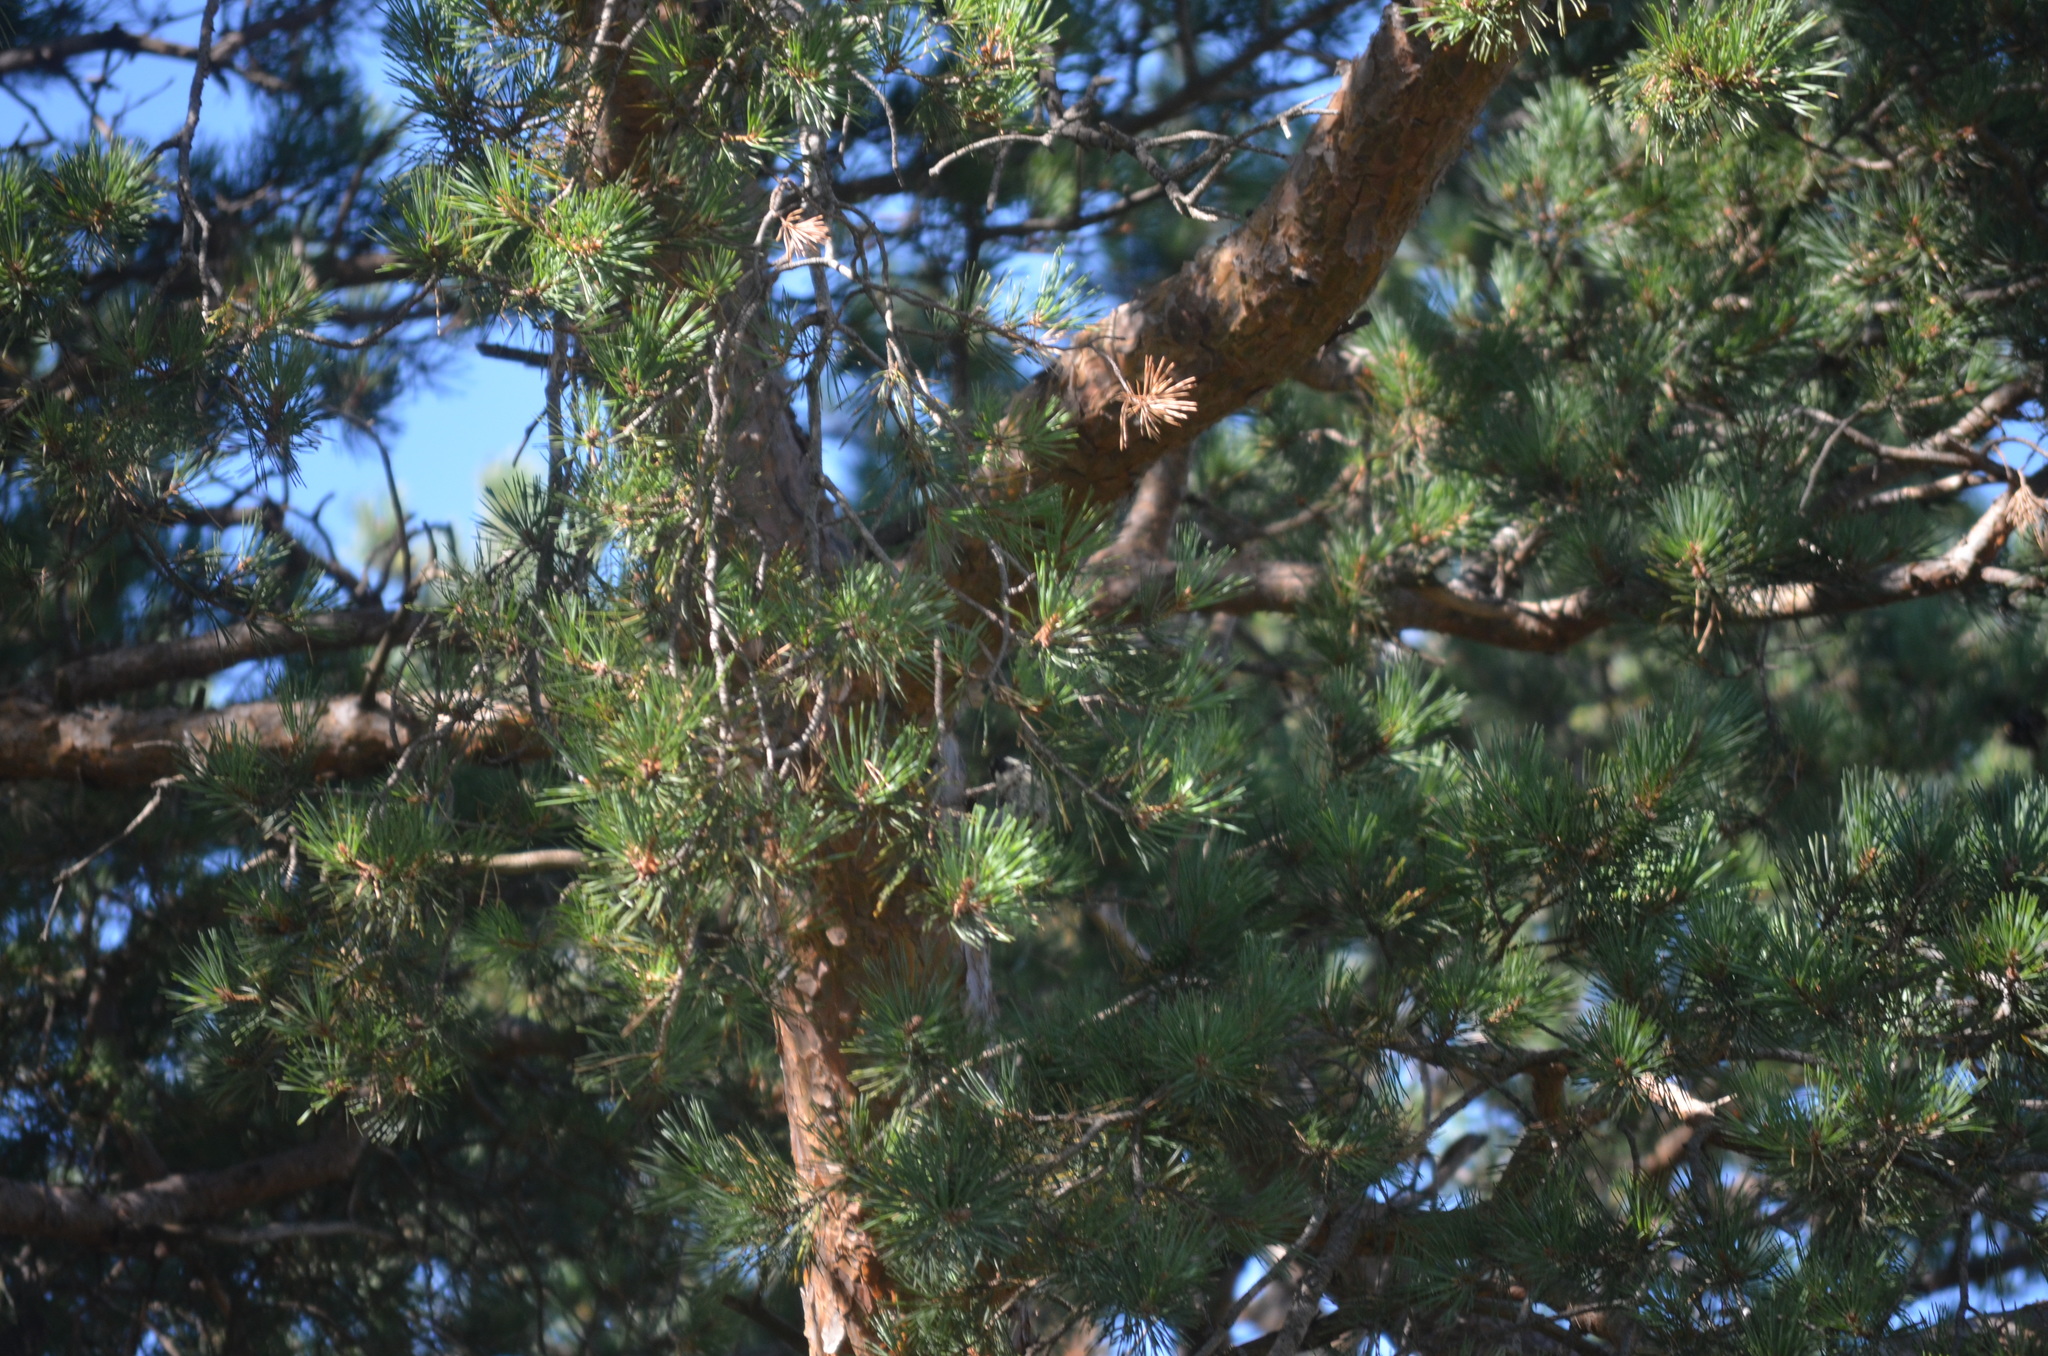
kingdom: Plantae
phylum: Tracheophyta
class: Pinopsida
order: Pinales
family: Pinaceae
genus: Pinus
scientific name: Pinus sylvestris
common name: Scots pine
